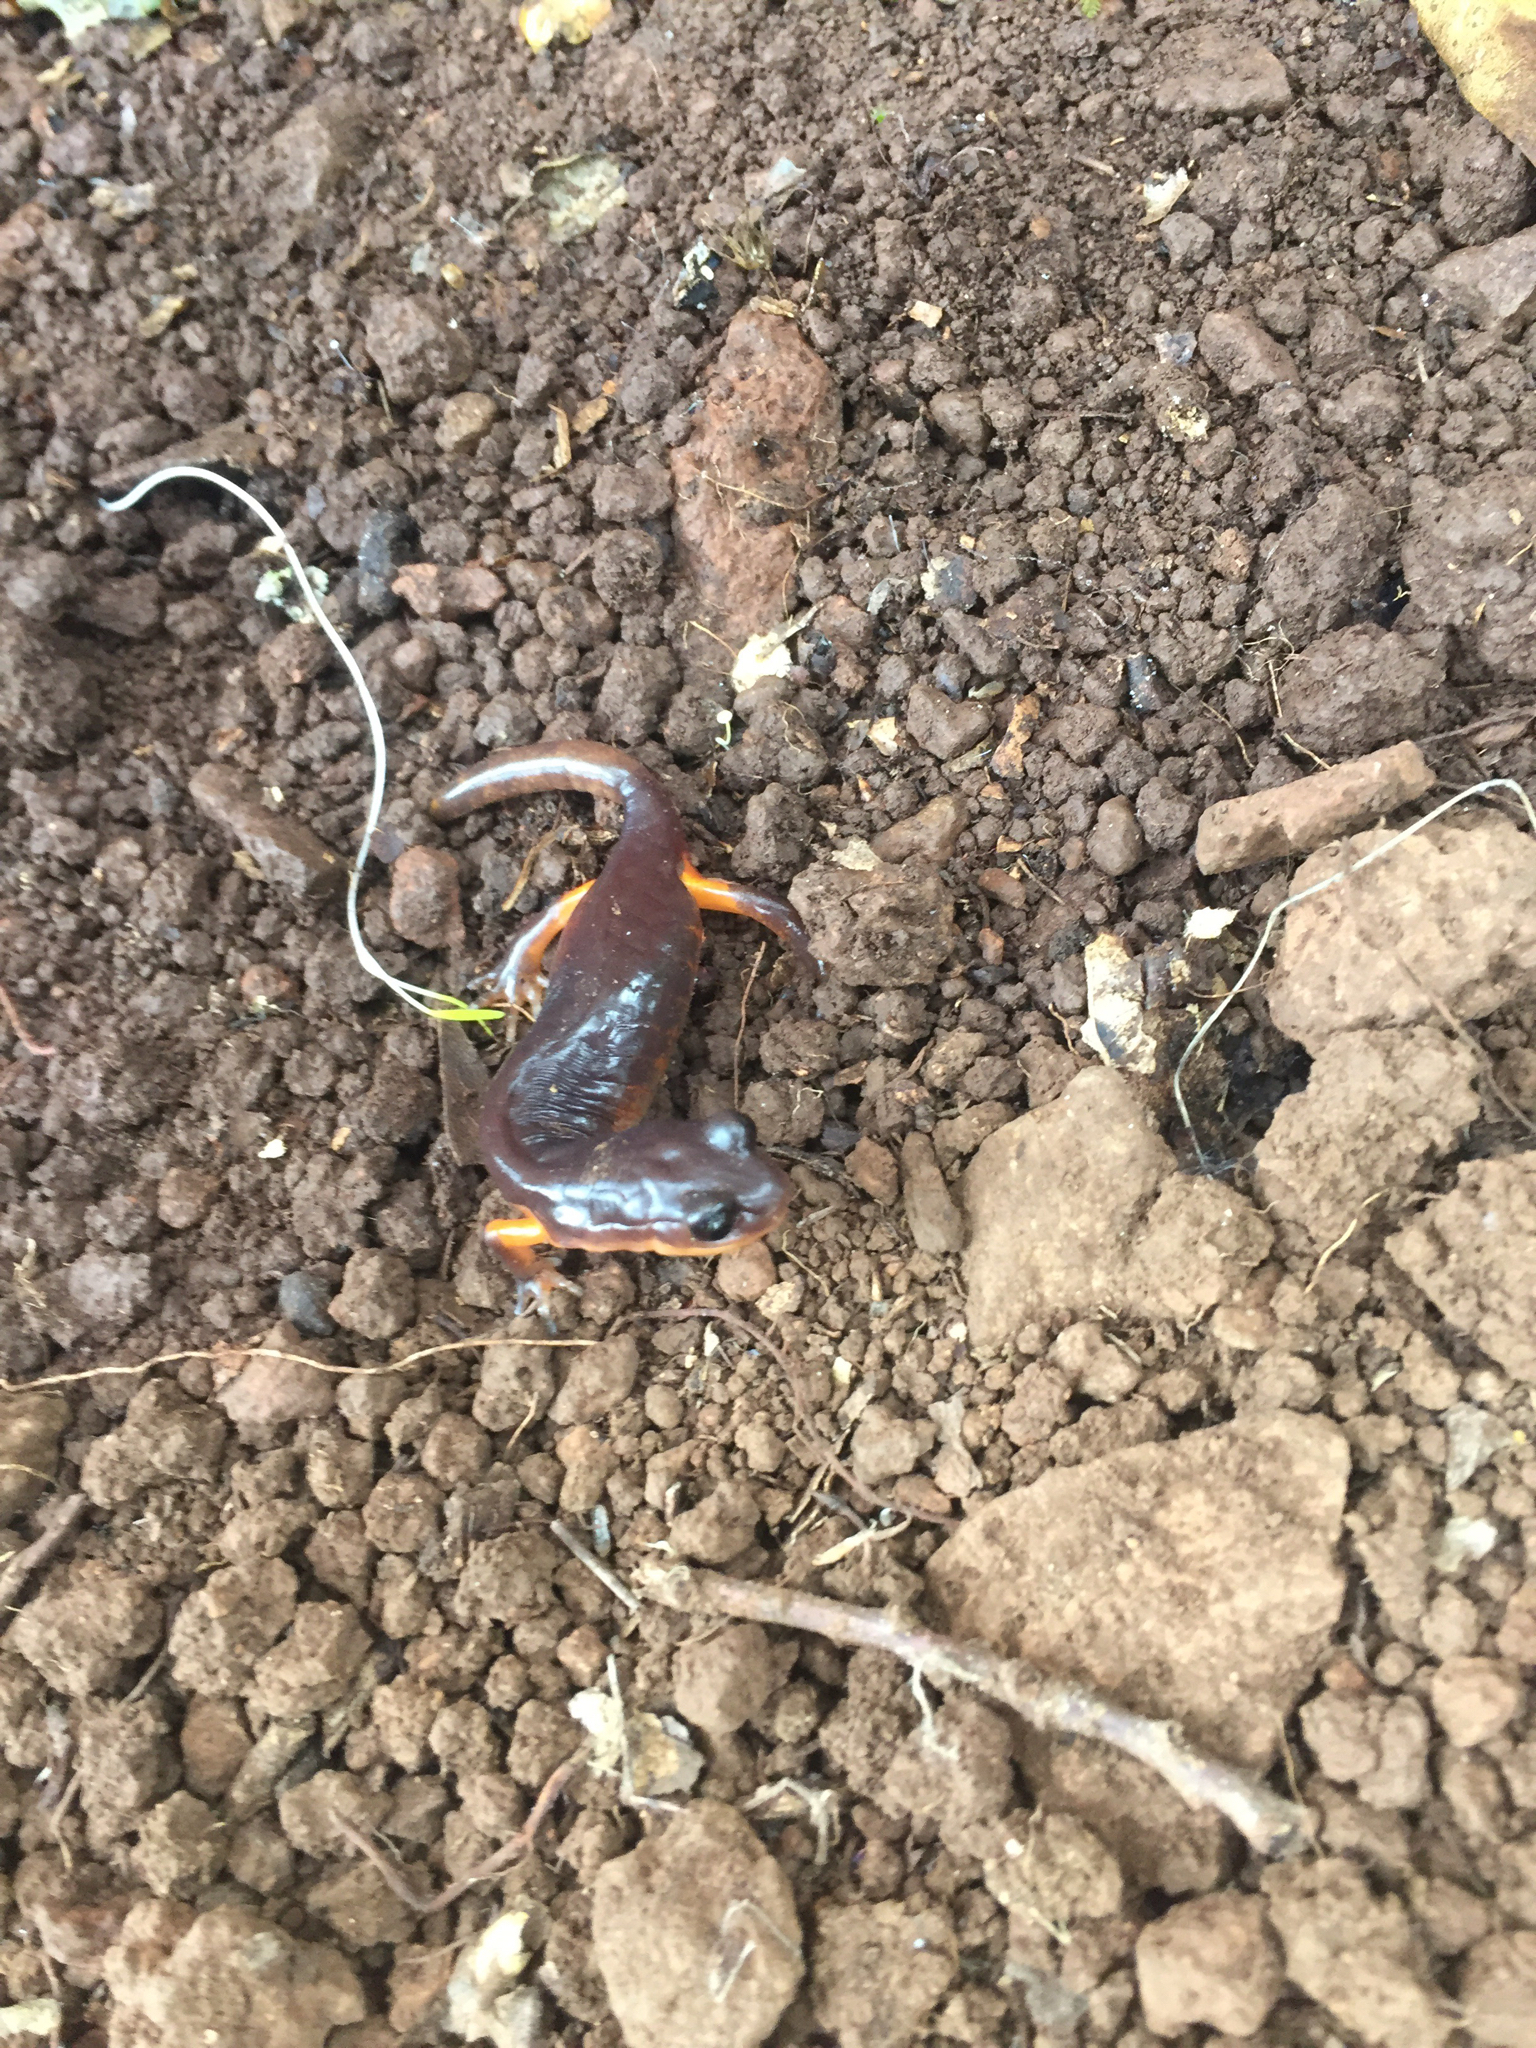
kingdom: Animalia
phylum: Chordata
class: Amphibia
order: Caudata
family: Plethodontidae
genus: Ensatina
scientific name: Ensatina eschscholtzii
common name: Ensatina
